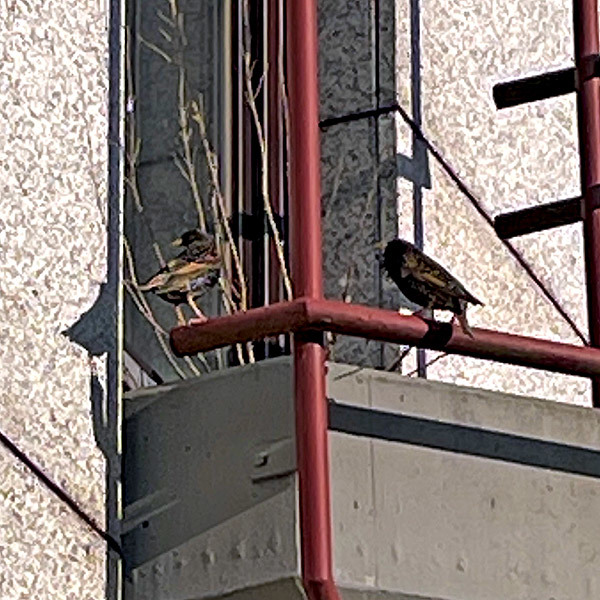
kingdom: Animalia
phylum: Chordata
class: Aves
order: Passeriformes
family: Sturnidae
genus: Sturnus
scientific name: Sturnus vulgaris
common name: Common starling
